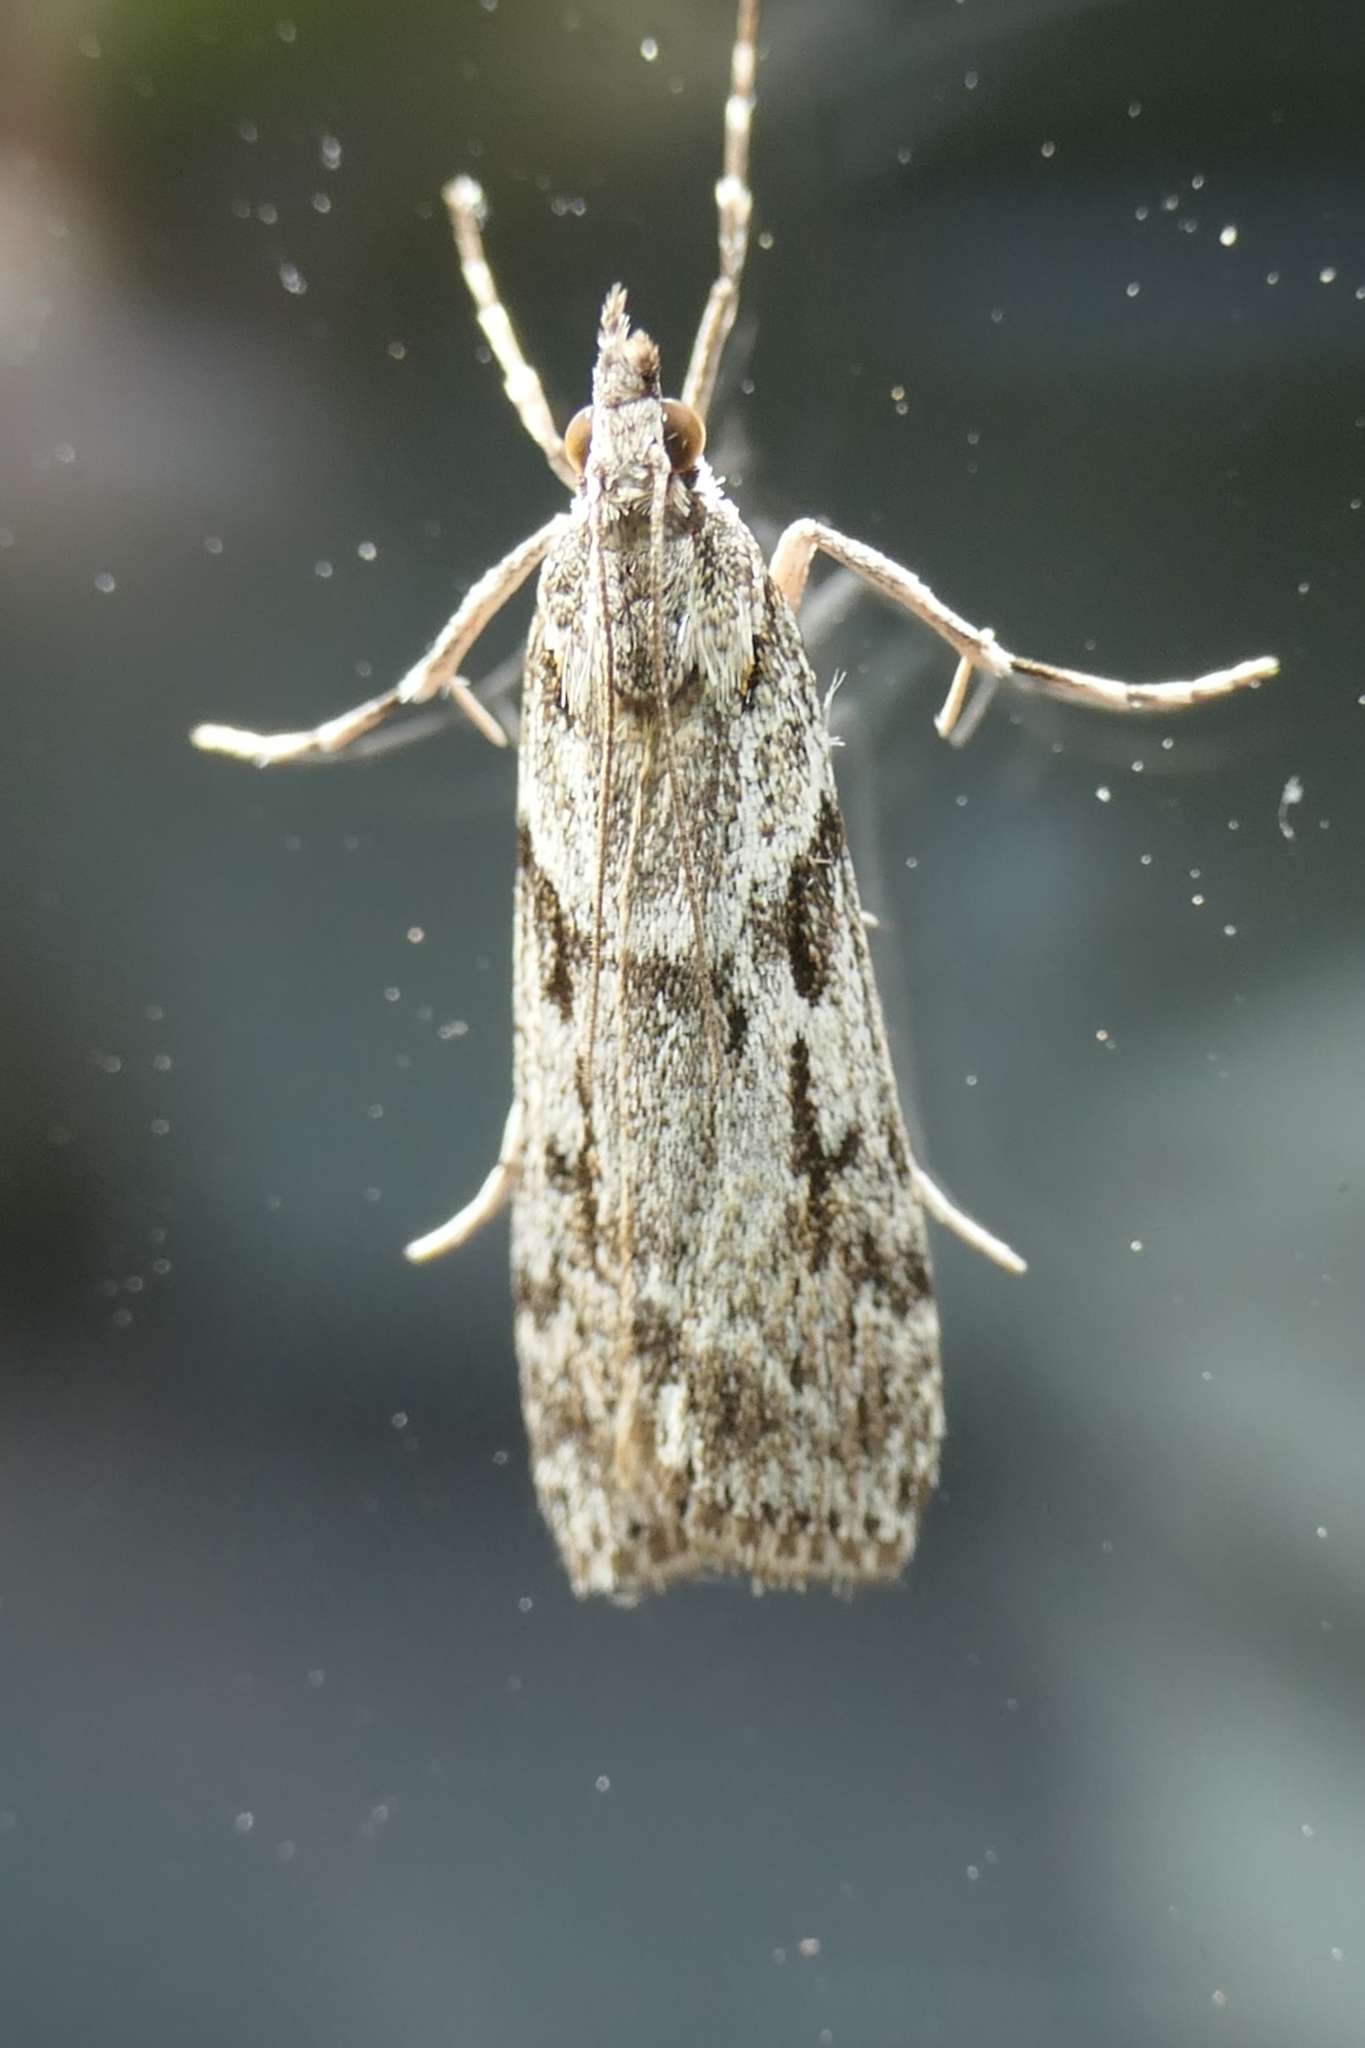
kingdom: Animalia
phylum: Arthropoda
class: Insecta
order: Lepidoptera
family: Crambidae
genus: Scoparia
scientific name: Scoparia halopis
